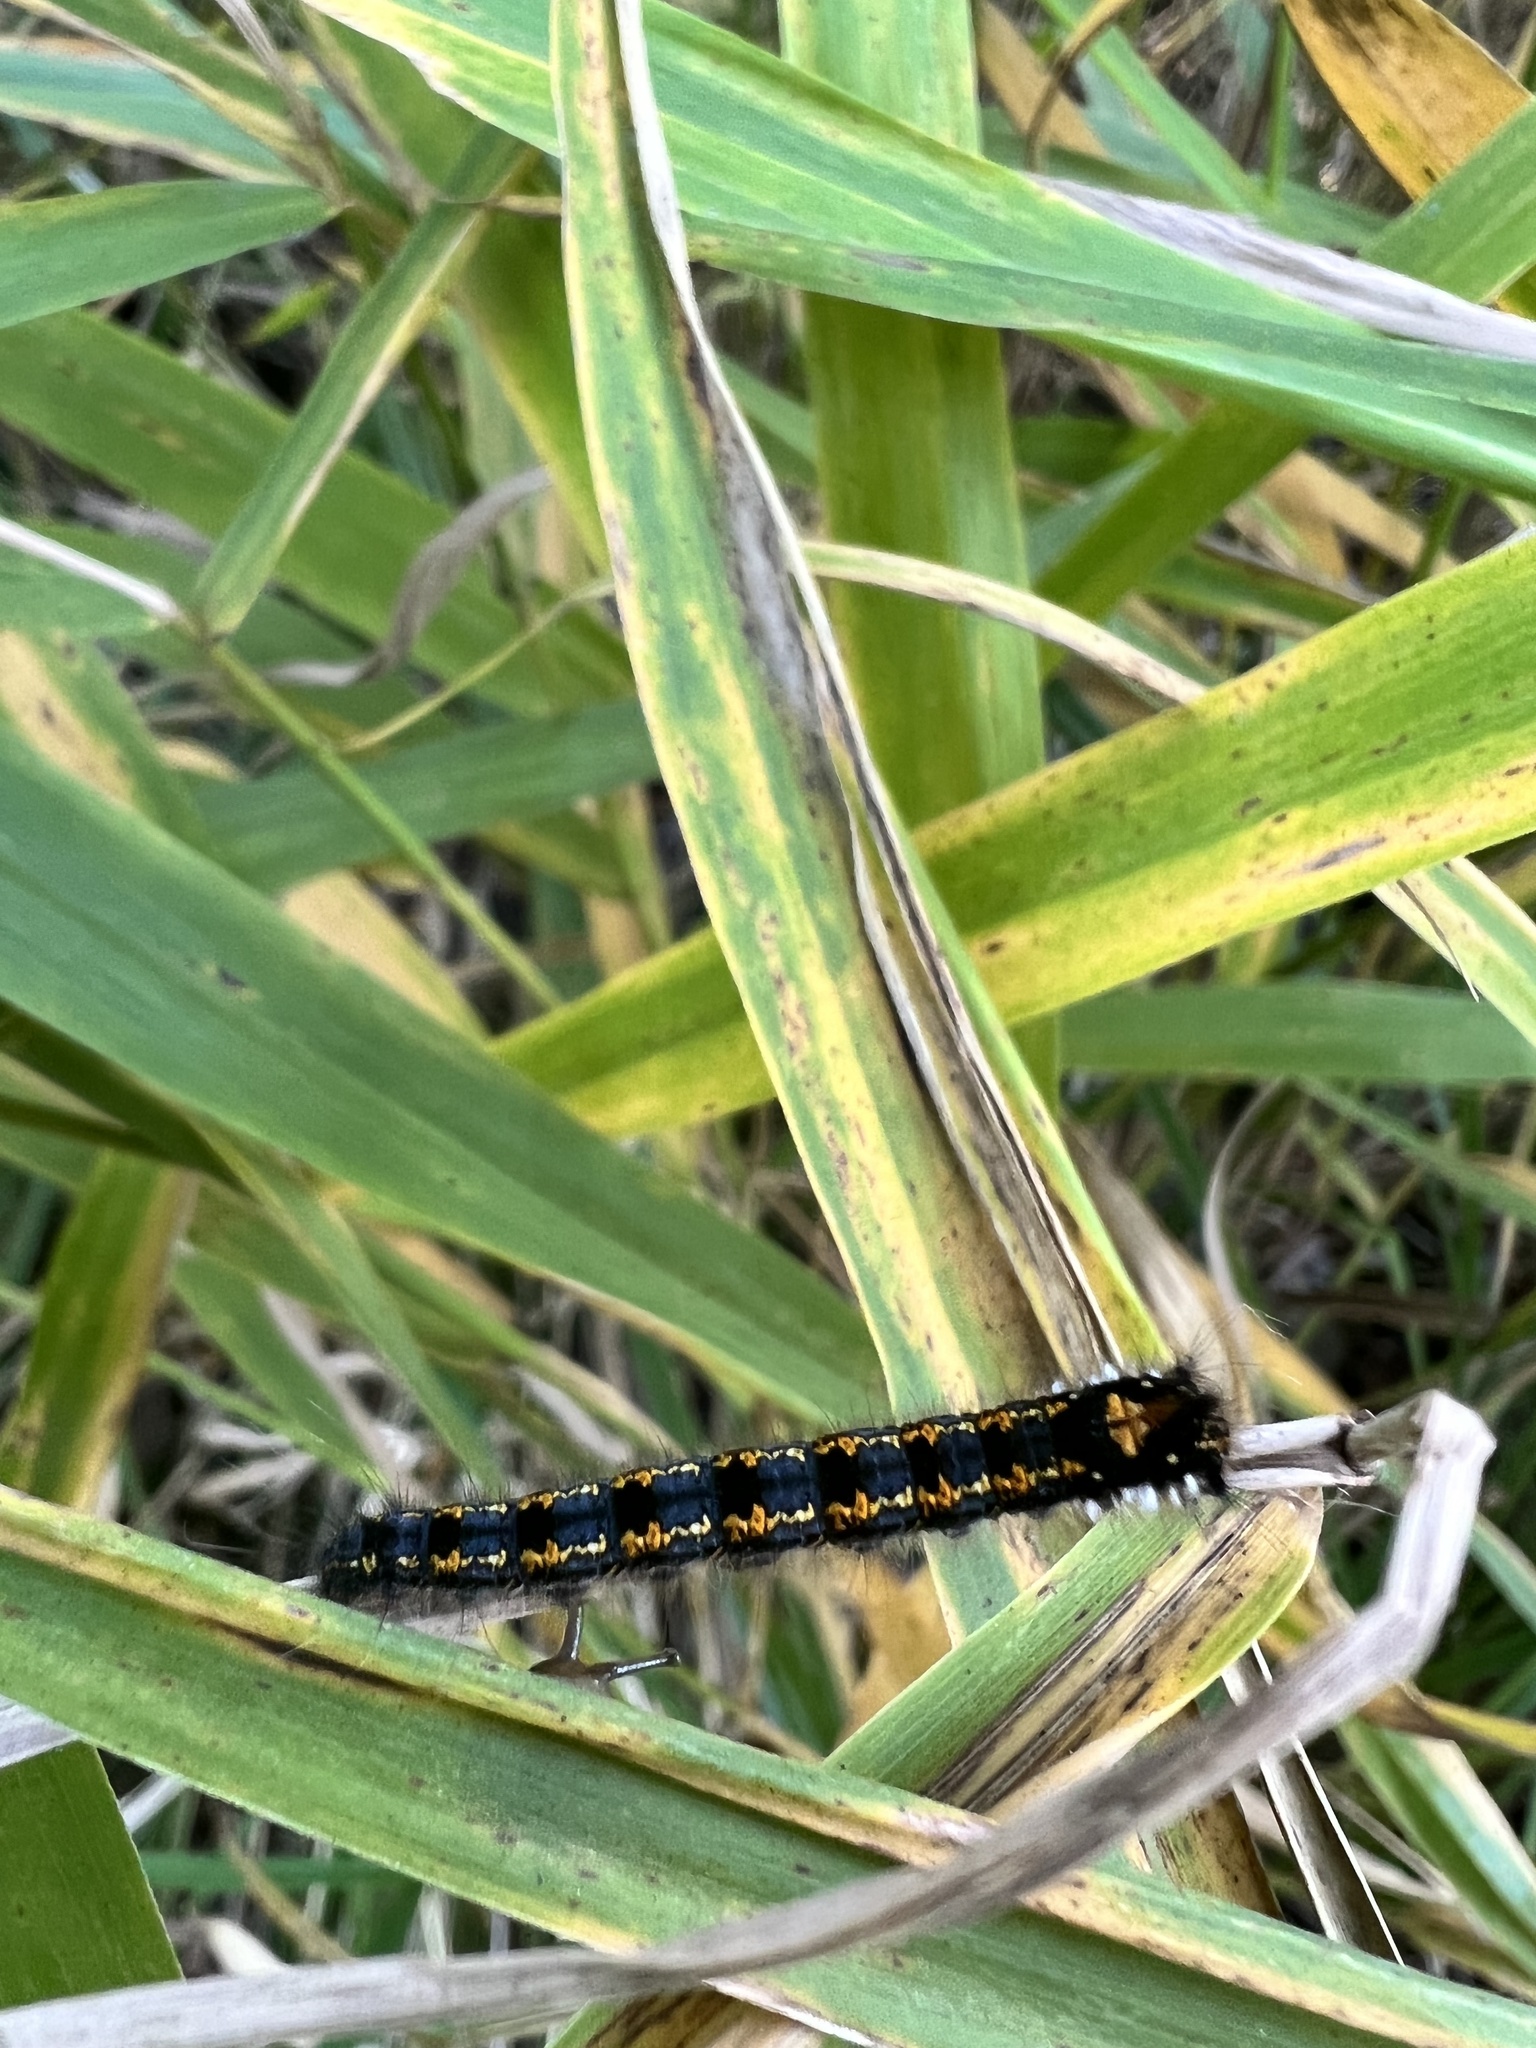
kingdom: Animalia
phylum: Arthropoda
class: Insecta
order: Lepidoptera
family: Lasiocampidae
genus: Euthrix
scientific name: Euthrix potatoria
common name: Drinker
